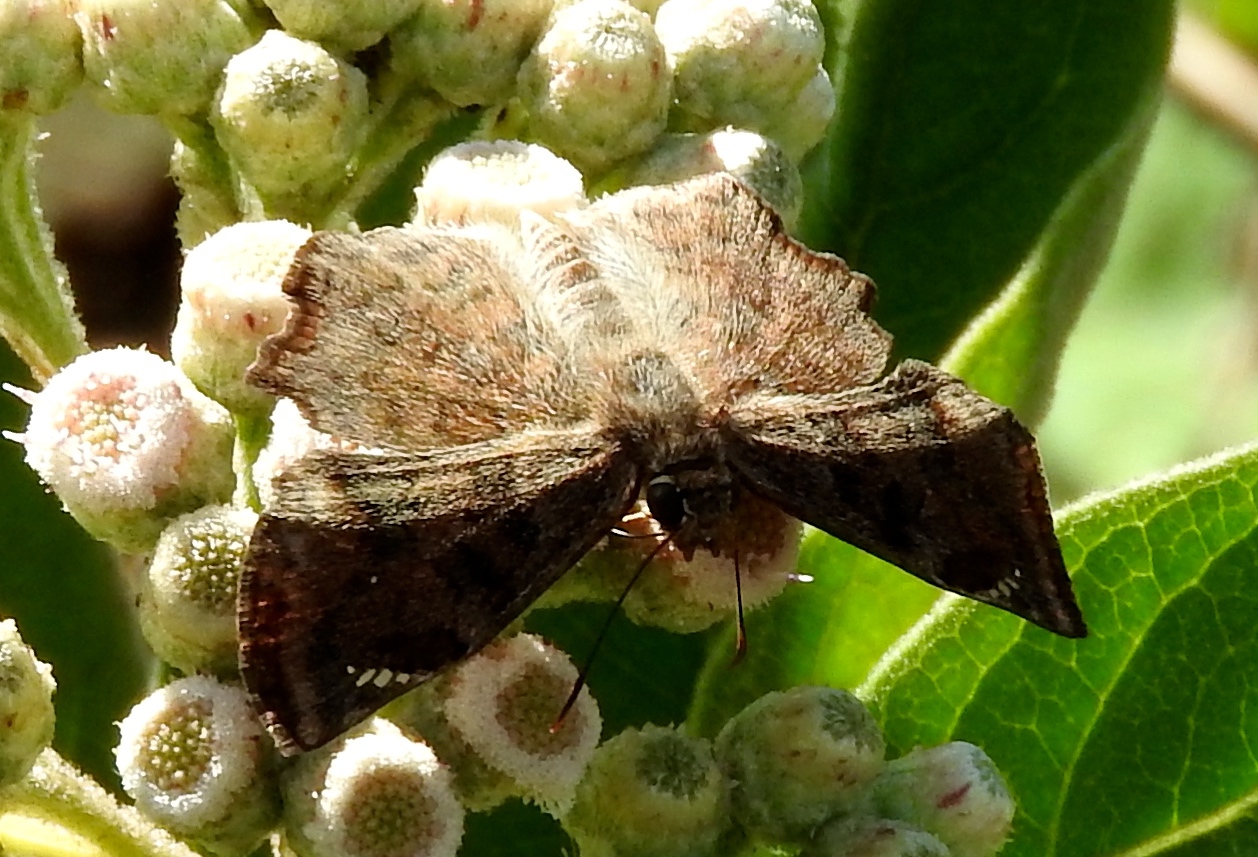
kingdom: Animalia
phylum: Arthropoda
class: Insecta
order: Lepidoptera
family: Hesperiidae
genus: Antigonus
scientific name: Antigonus erosus
